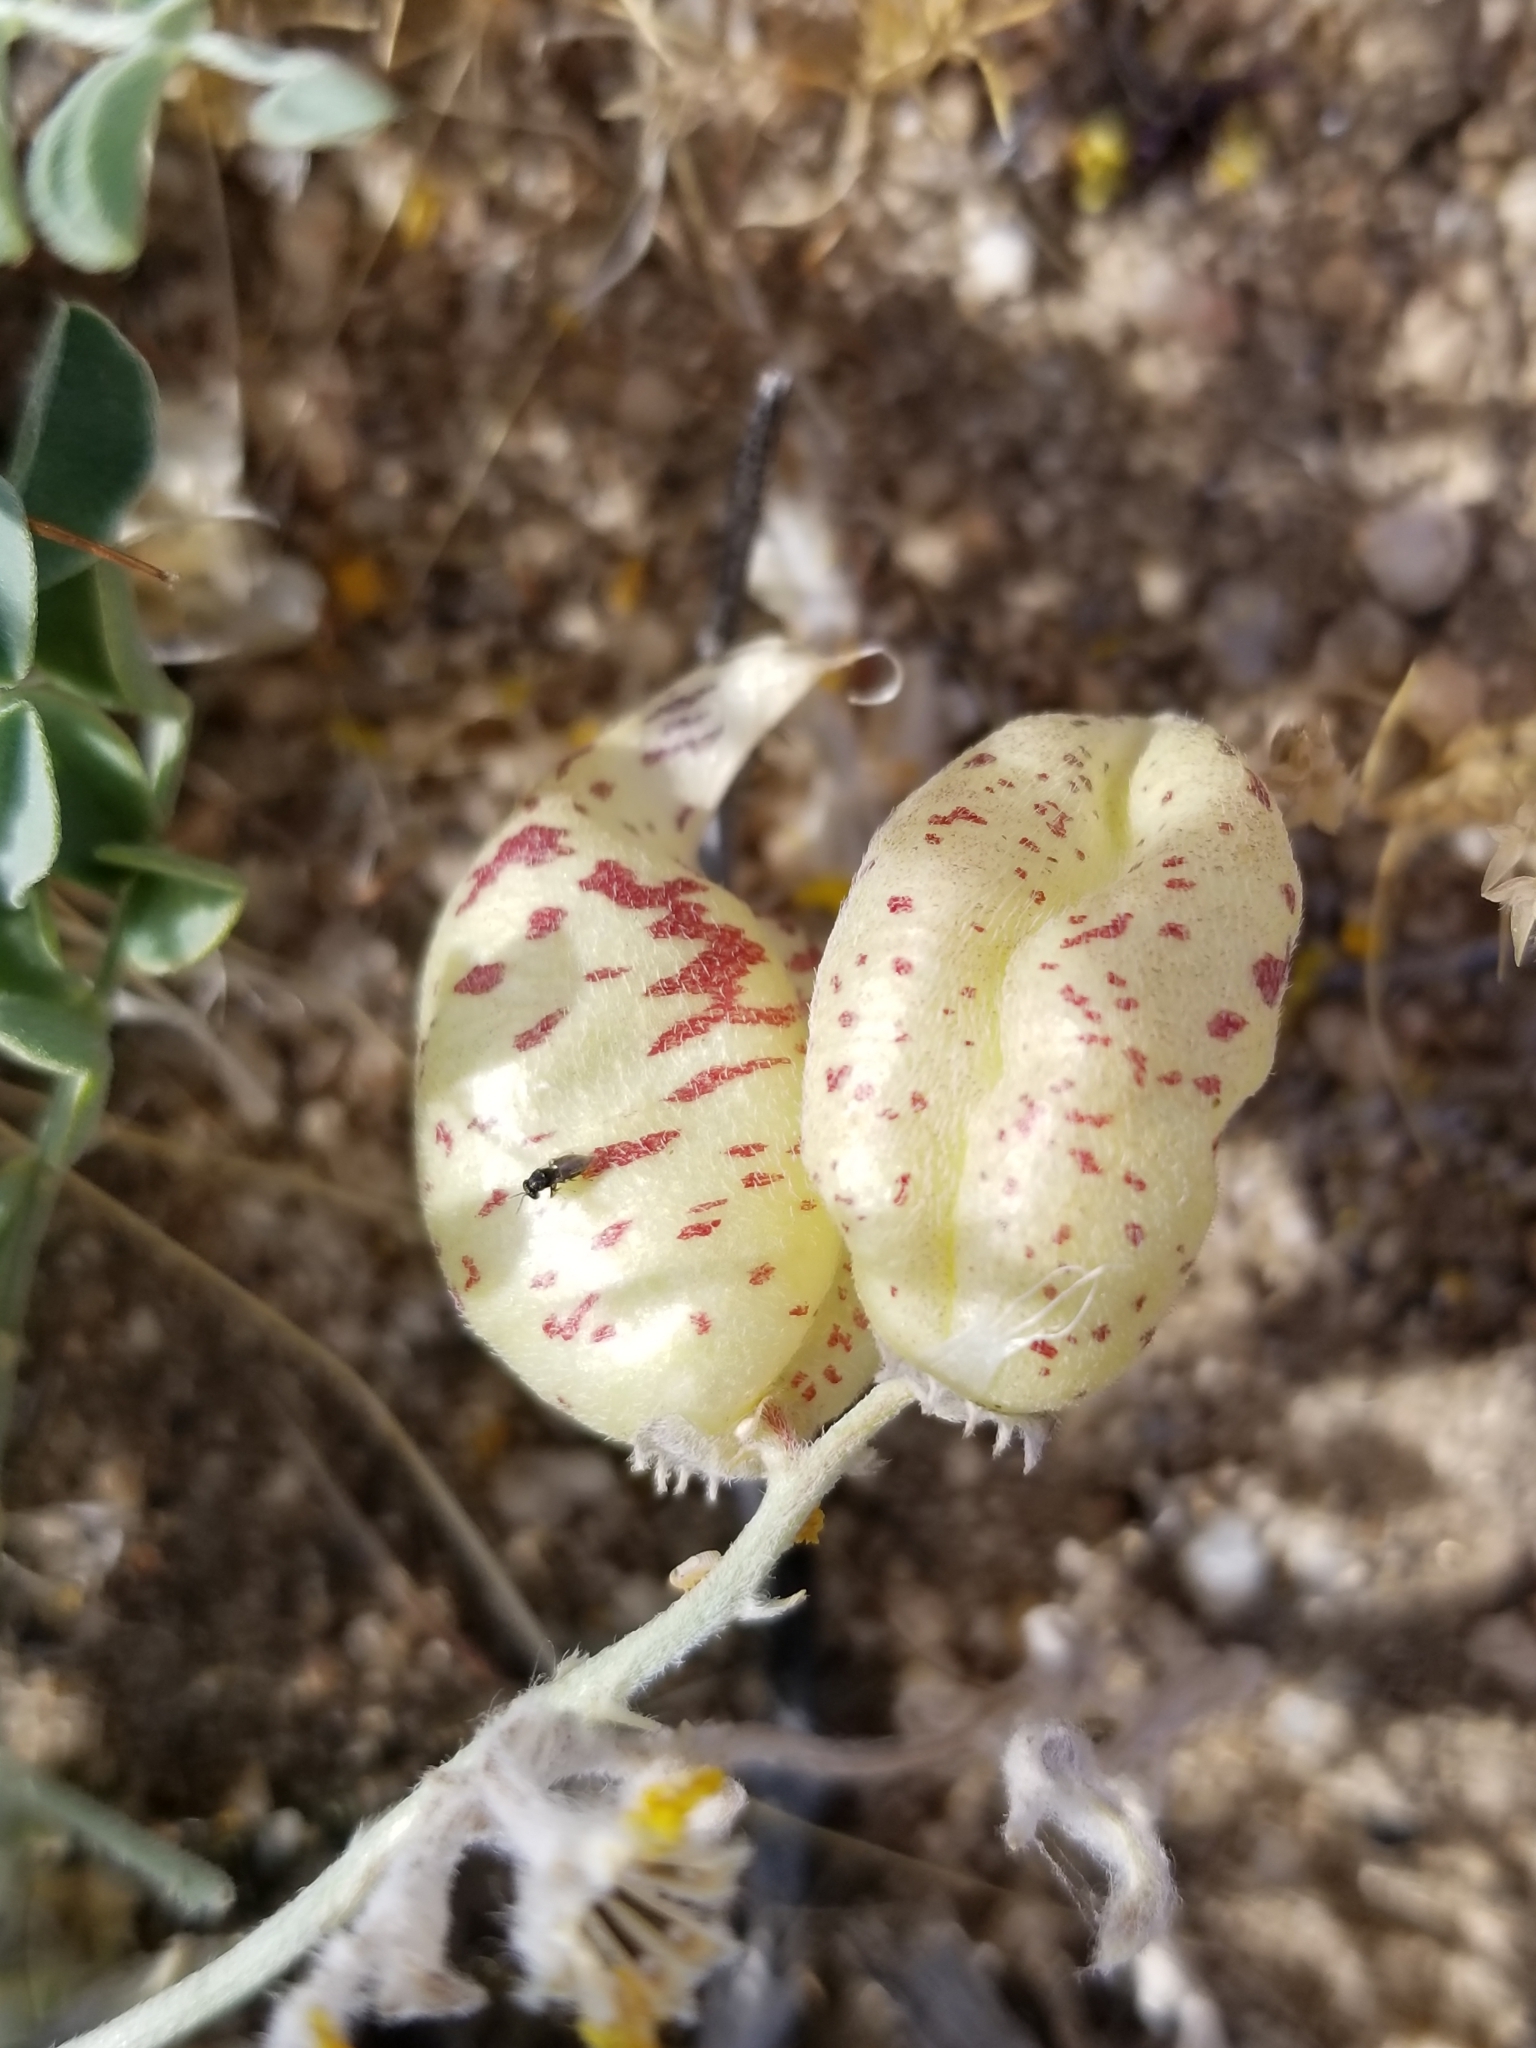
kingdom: Plantae
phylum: Tracheophyta
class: Magnoliopsida
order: Fabales
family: Fabaceae
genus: Astragalus
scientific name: Astragalus lentiginosus
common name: Freckled milkvetch
